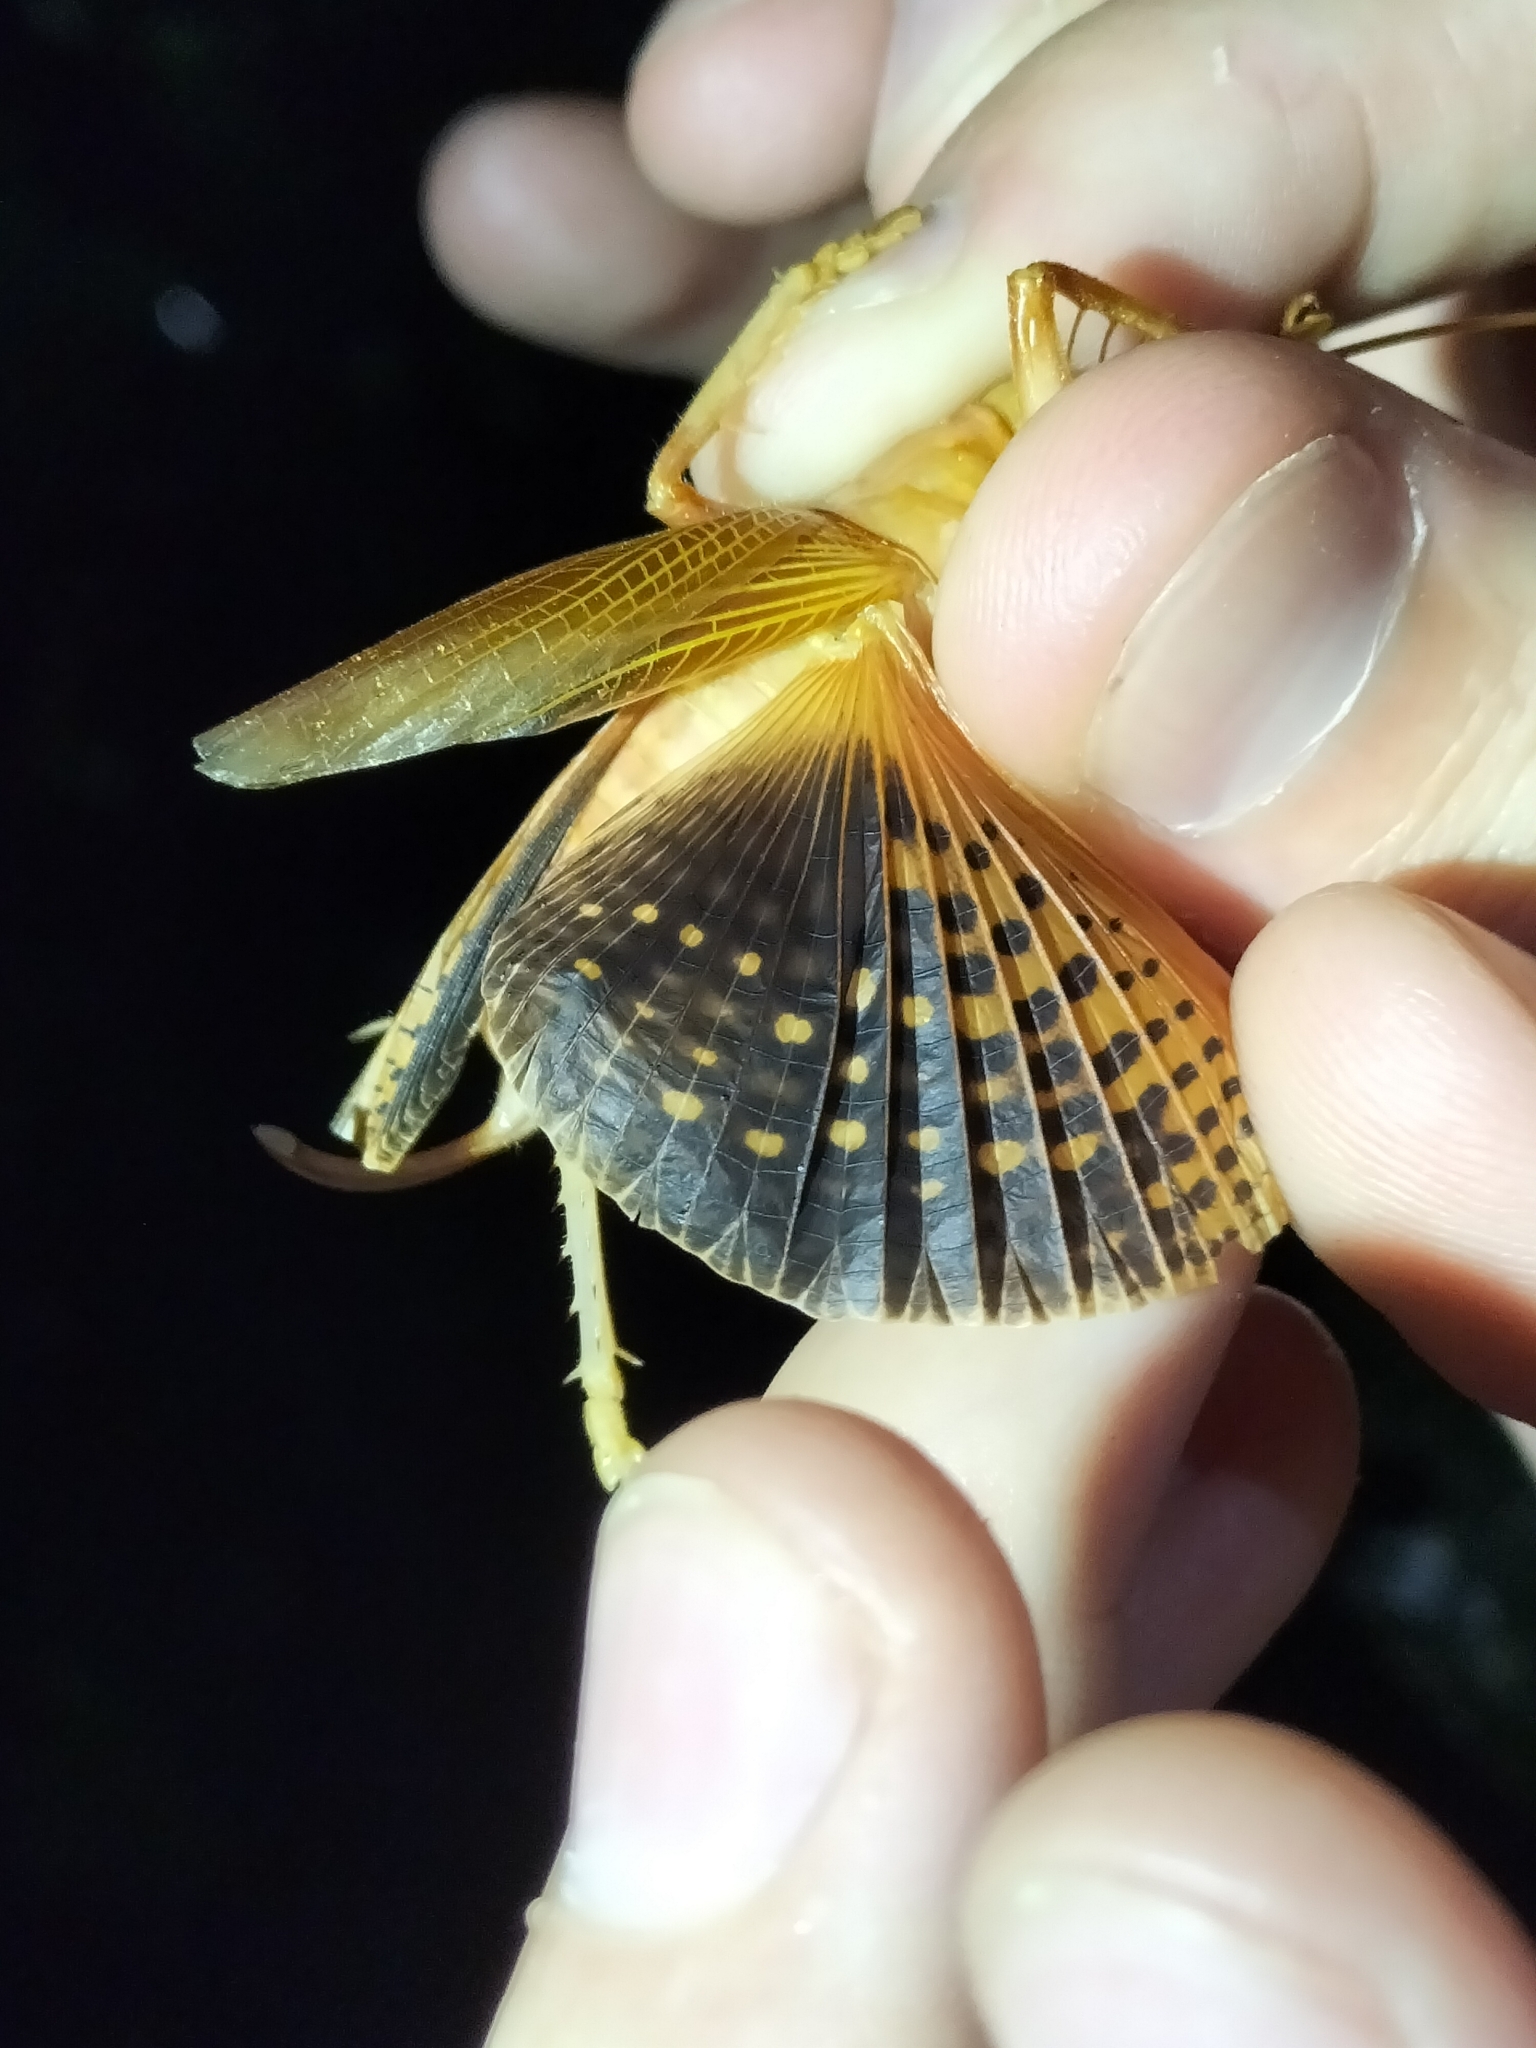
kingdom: Animalia
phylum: Arthropoda
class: Insecta
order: Orthoptera
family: Gryllacrididae
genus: Xanthogryllacris
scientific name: Xanthogryllacris punctipennis
